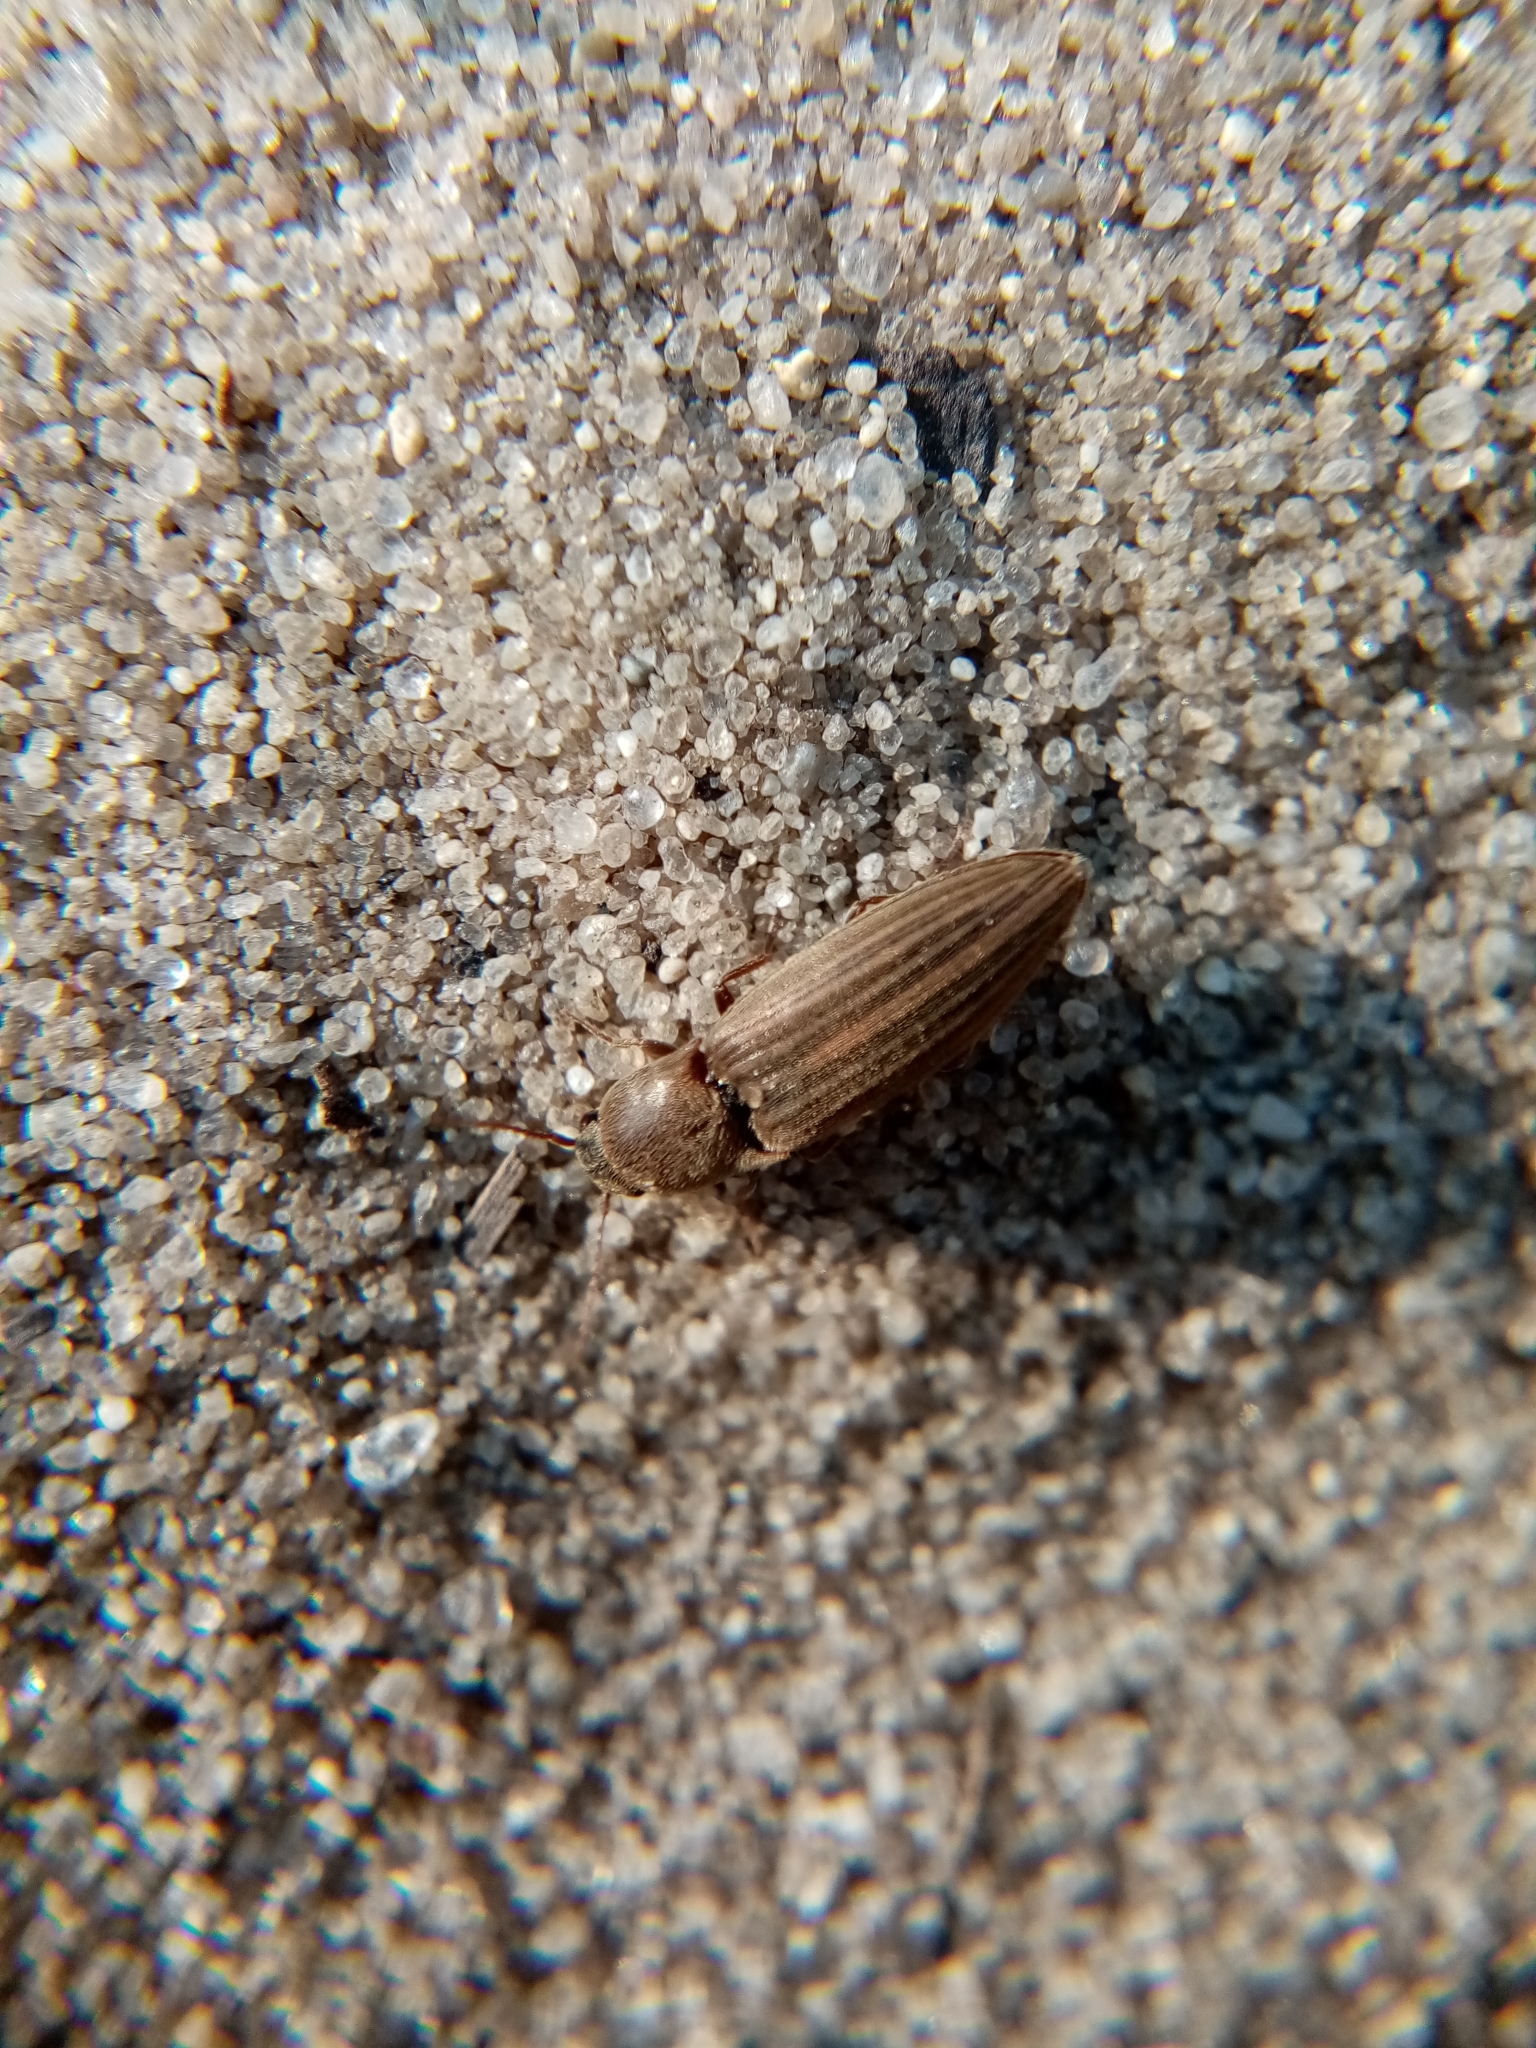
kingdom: Animalia
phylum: Arthropoda
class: Insecta
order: Coleoptera
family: Elateridae
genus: Agriotes
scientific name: Agriotes lineatus
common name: Lined click beetle
